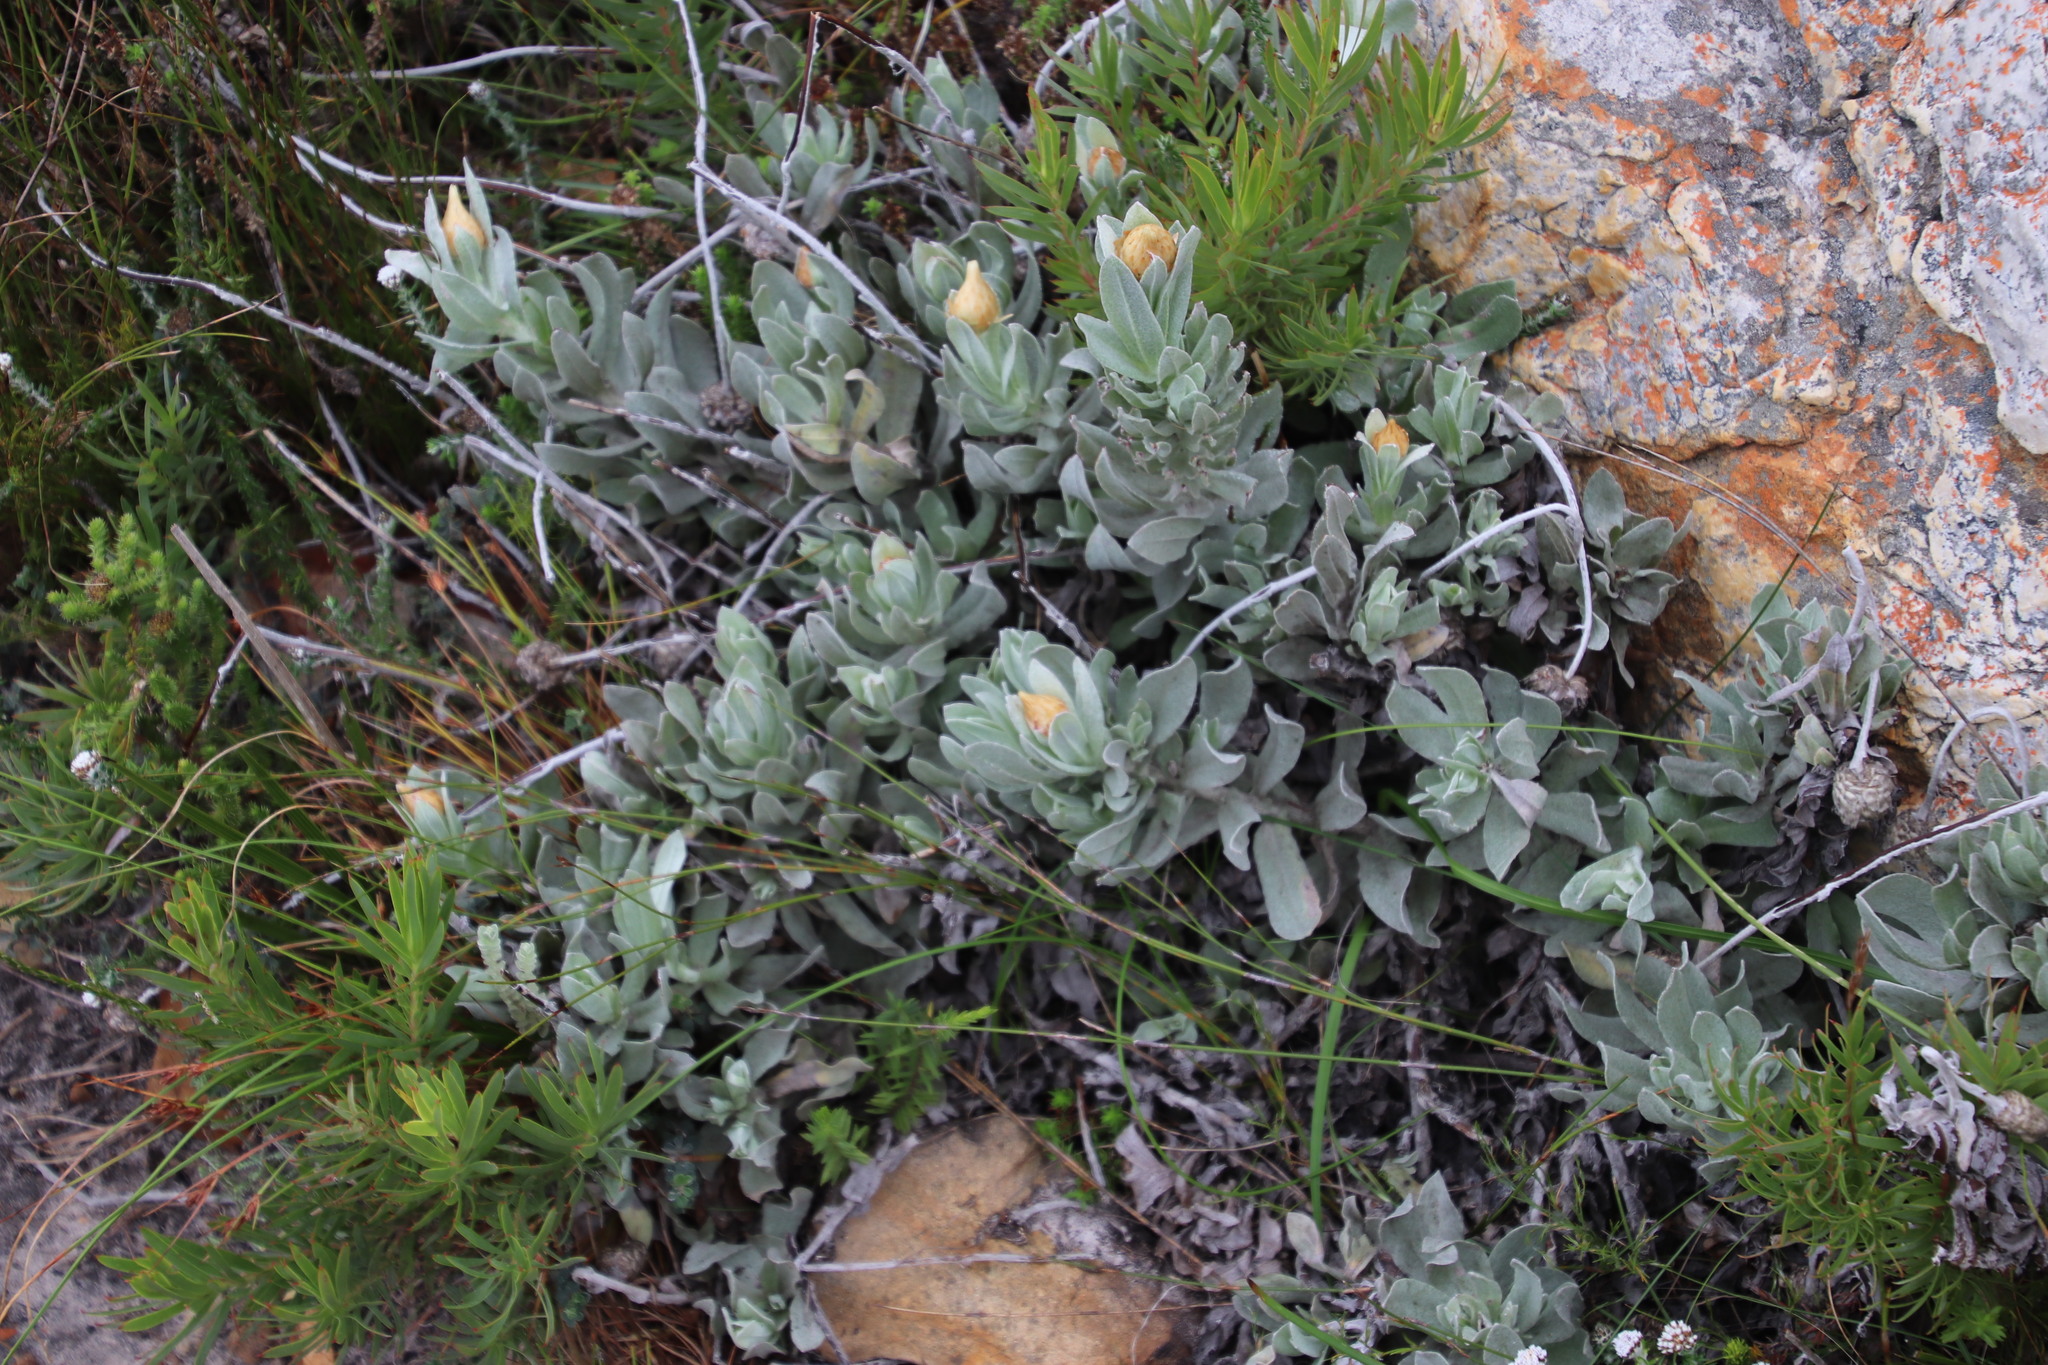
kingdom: Plantae
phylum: Tracheophyta
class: Magnoliopsida
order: Asterales
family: Asteraceae
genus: Syncarpha
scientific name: Syncarpha speciosissima
